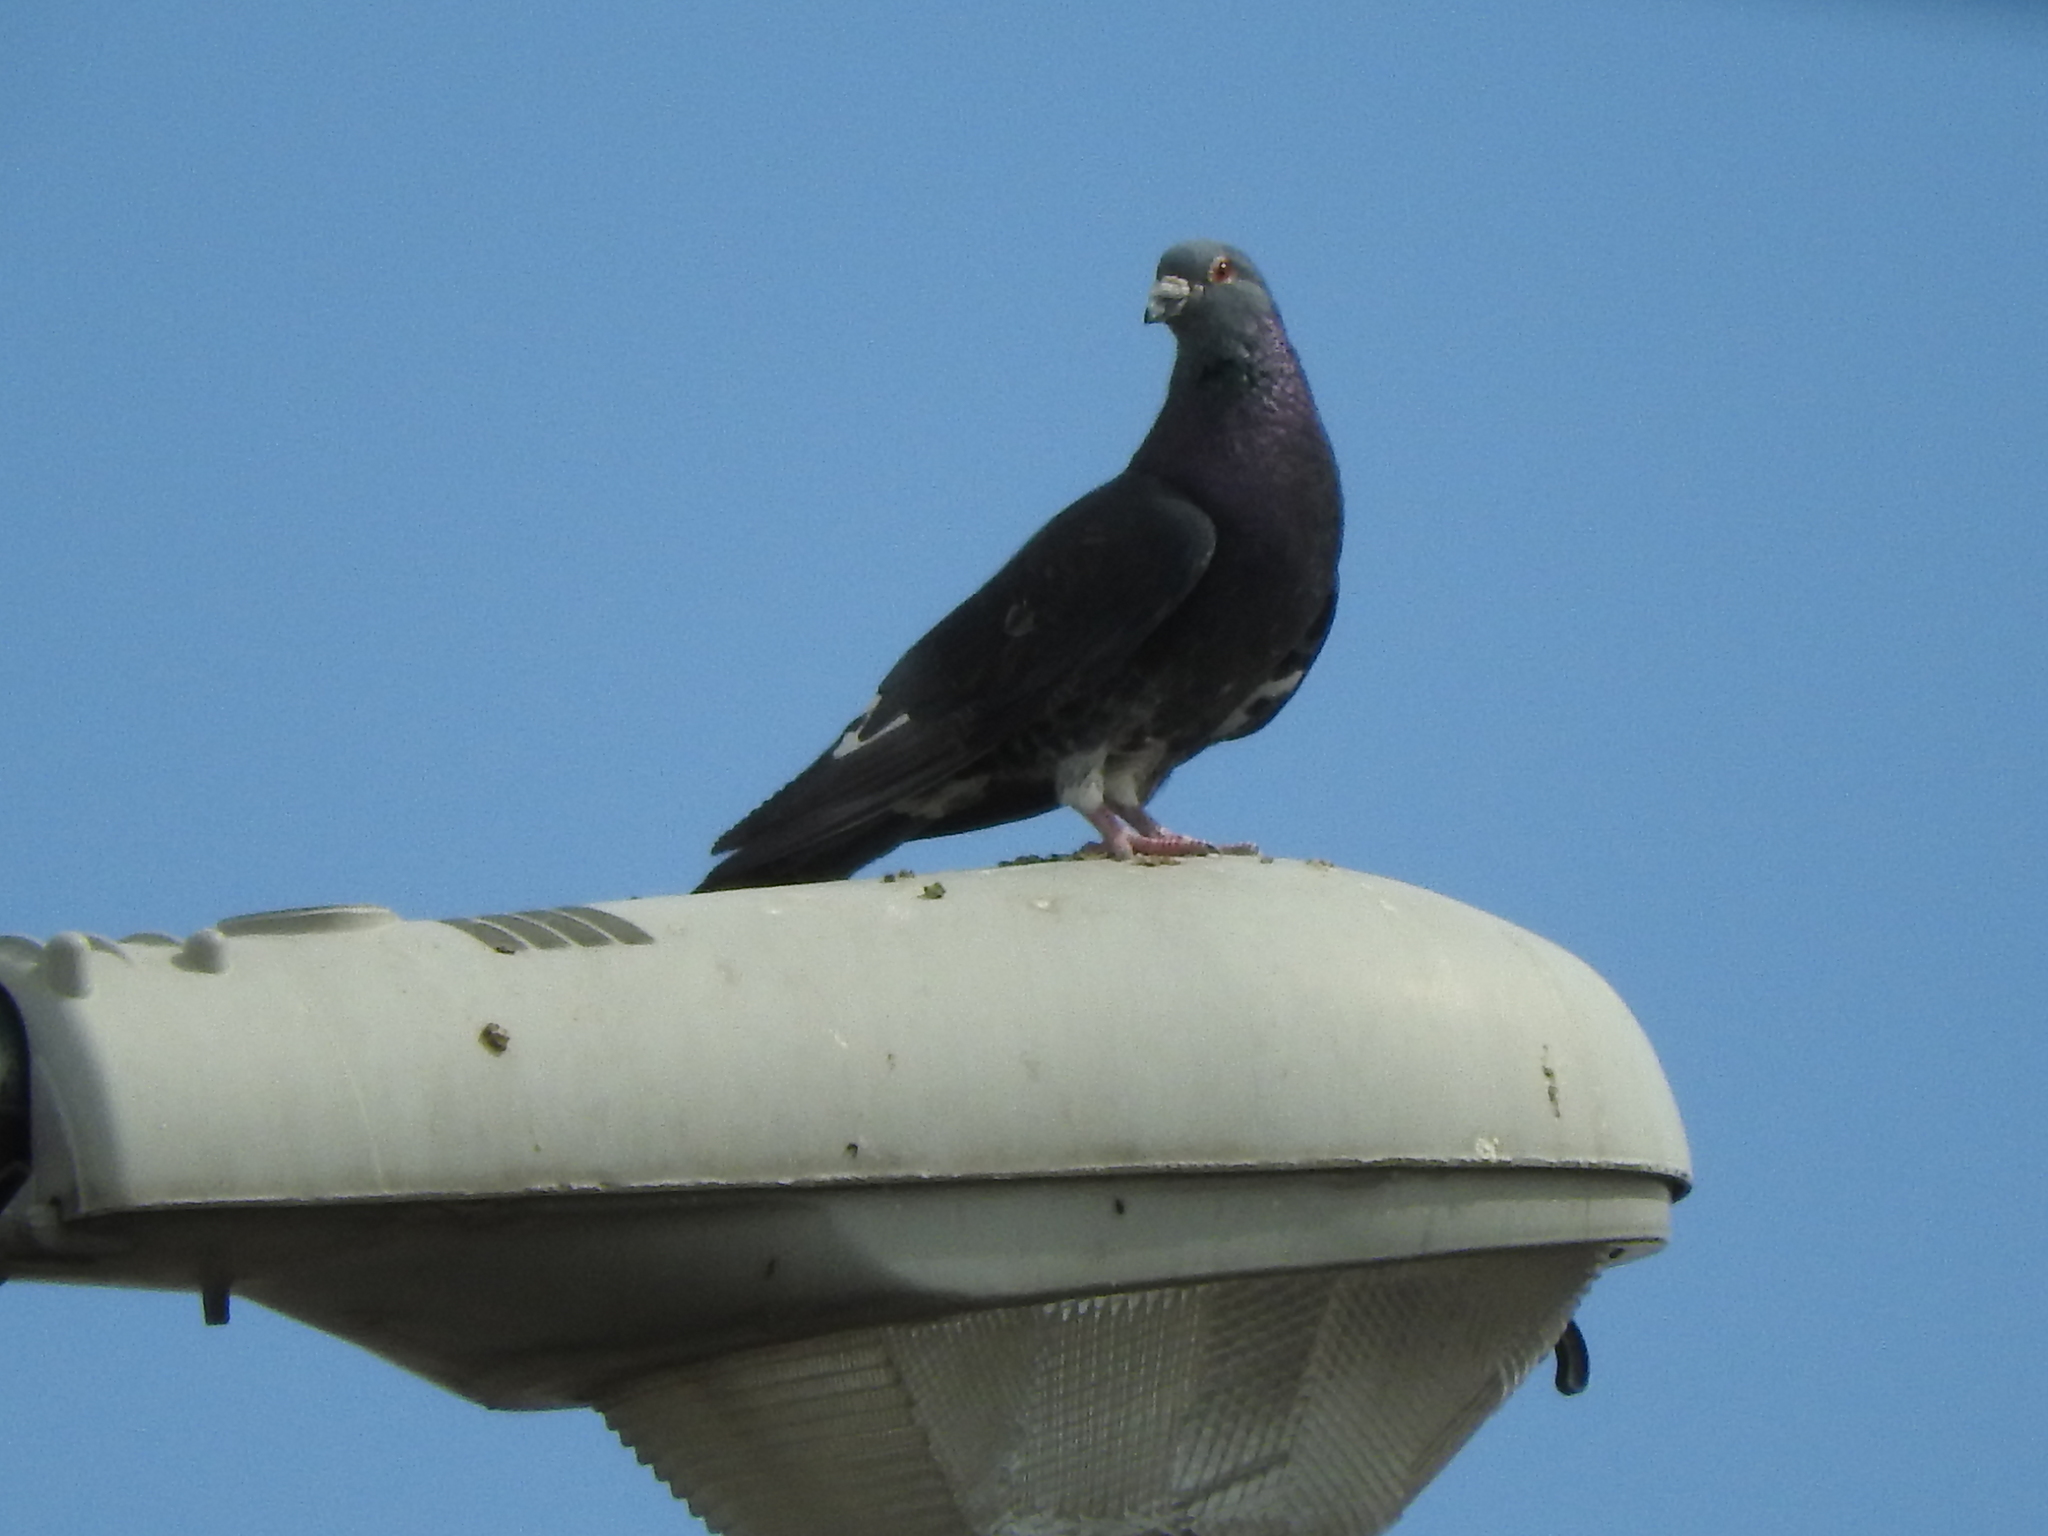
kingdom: Animalia
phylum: Chordata
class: Aves
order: Columbiformes
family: Columbidae
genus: Columba
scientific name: Columba livia
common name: Rock pigeon
